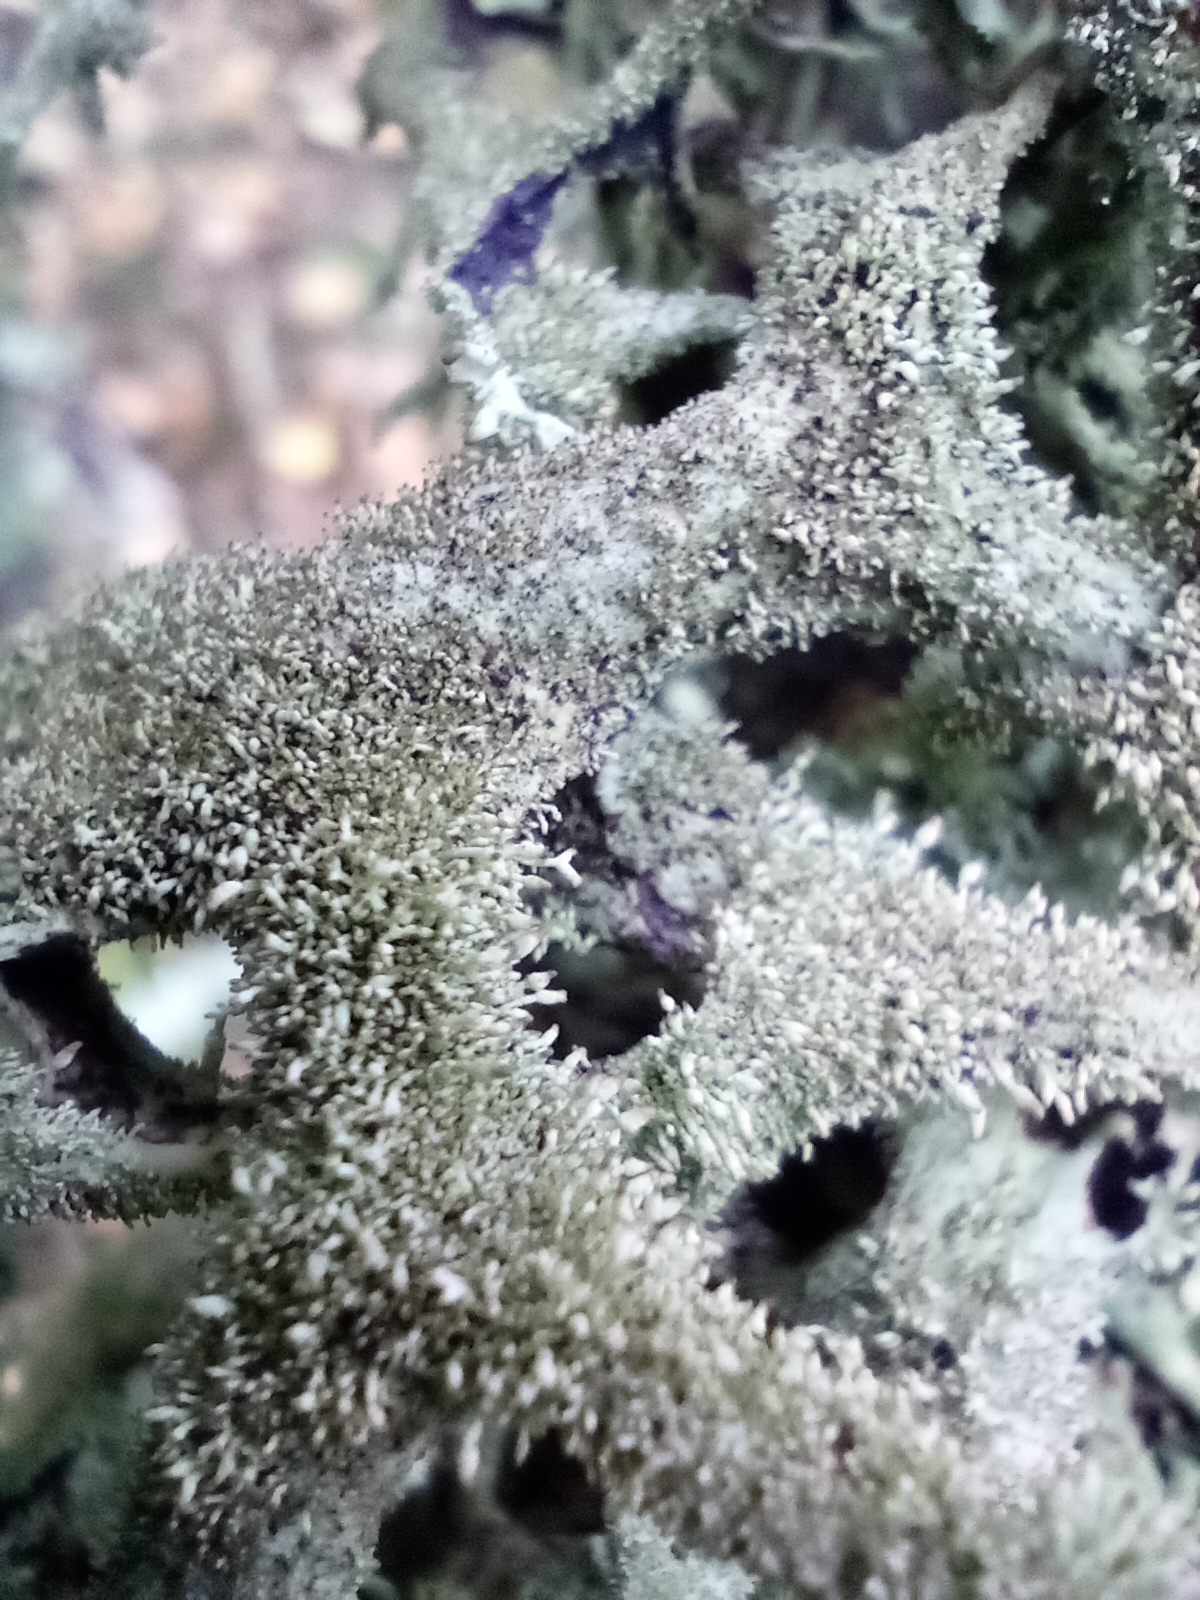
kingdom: Fungi
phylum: Ascomycota
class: Lecanoromycetes
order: Lecanorales
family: Parmeliaceae
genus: Pseudevernia
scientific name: Pseudevernia furfuracea
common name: Tree moss
